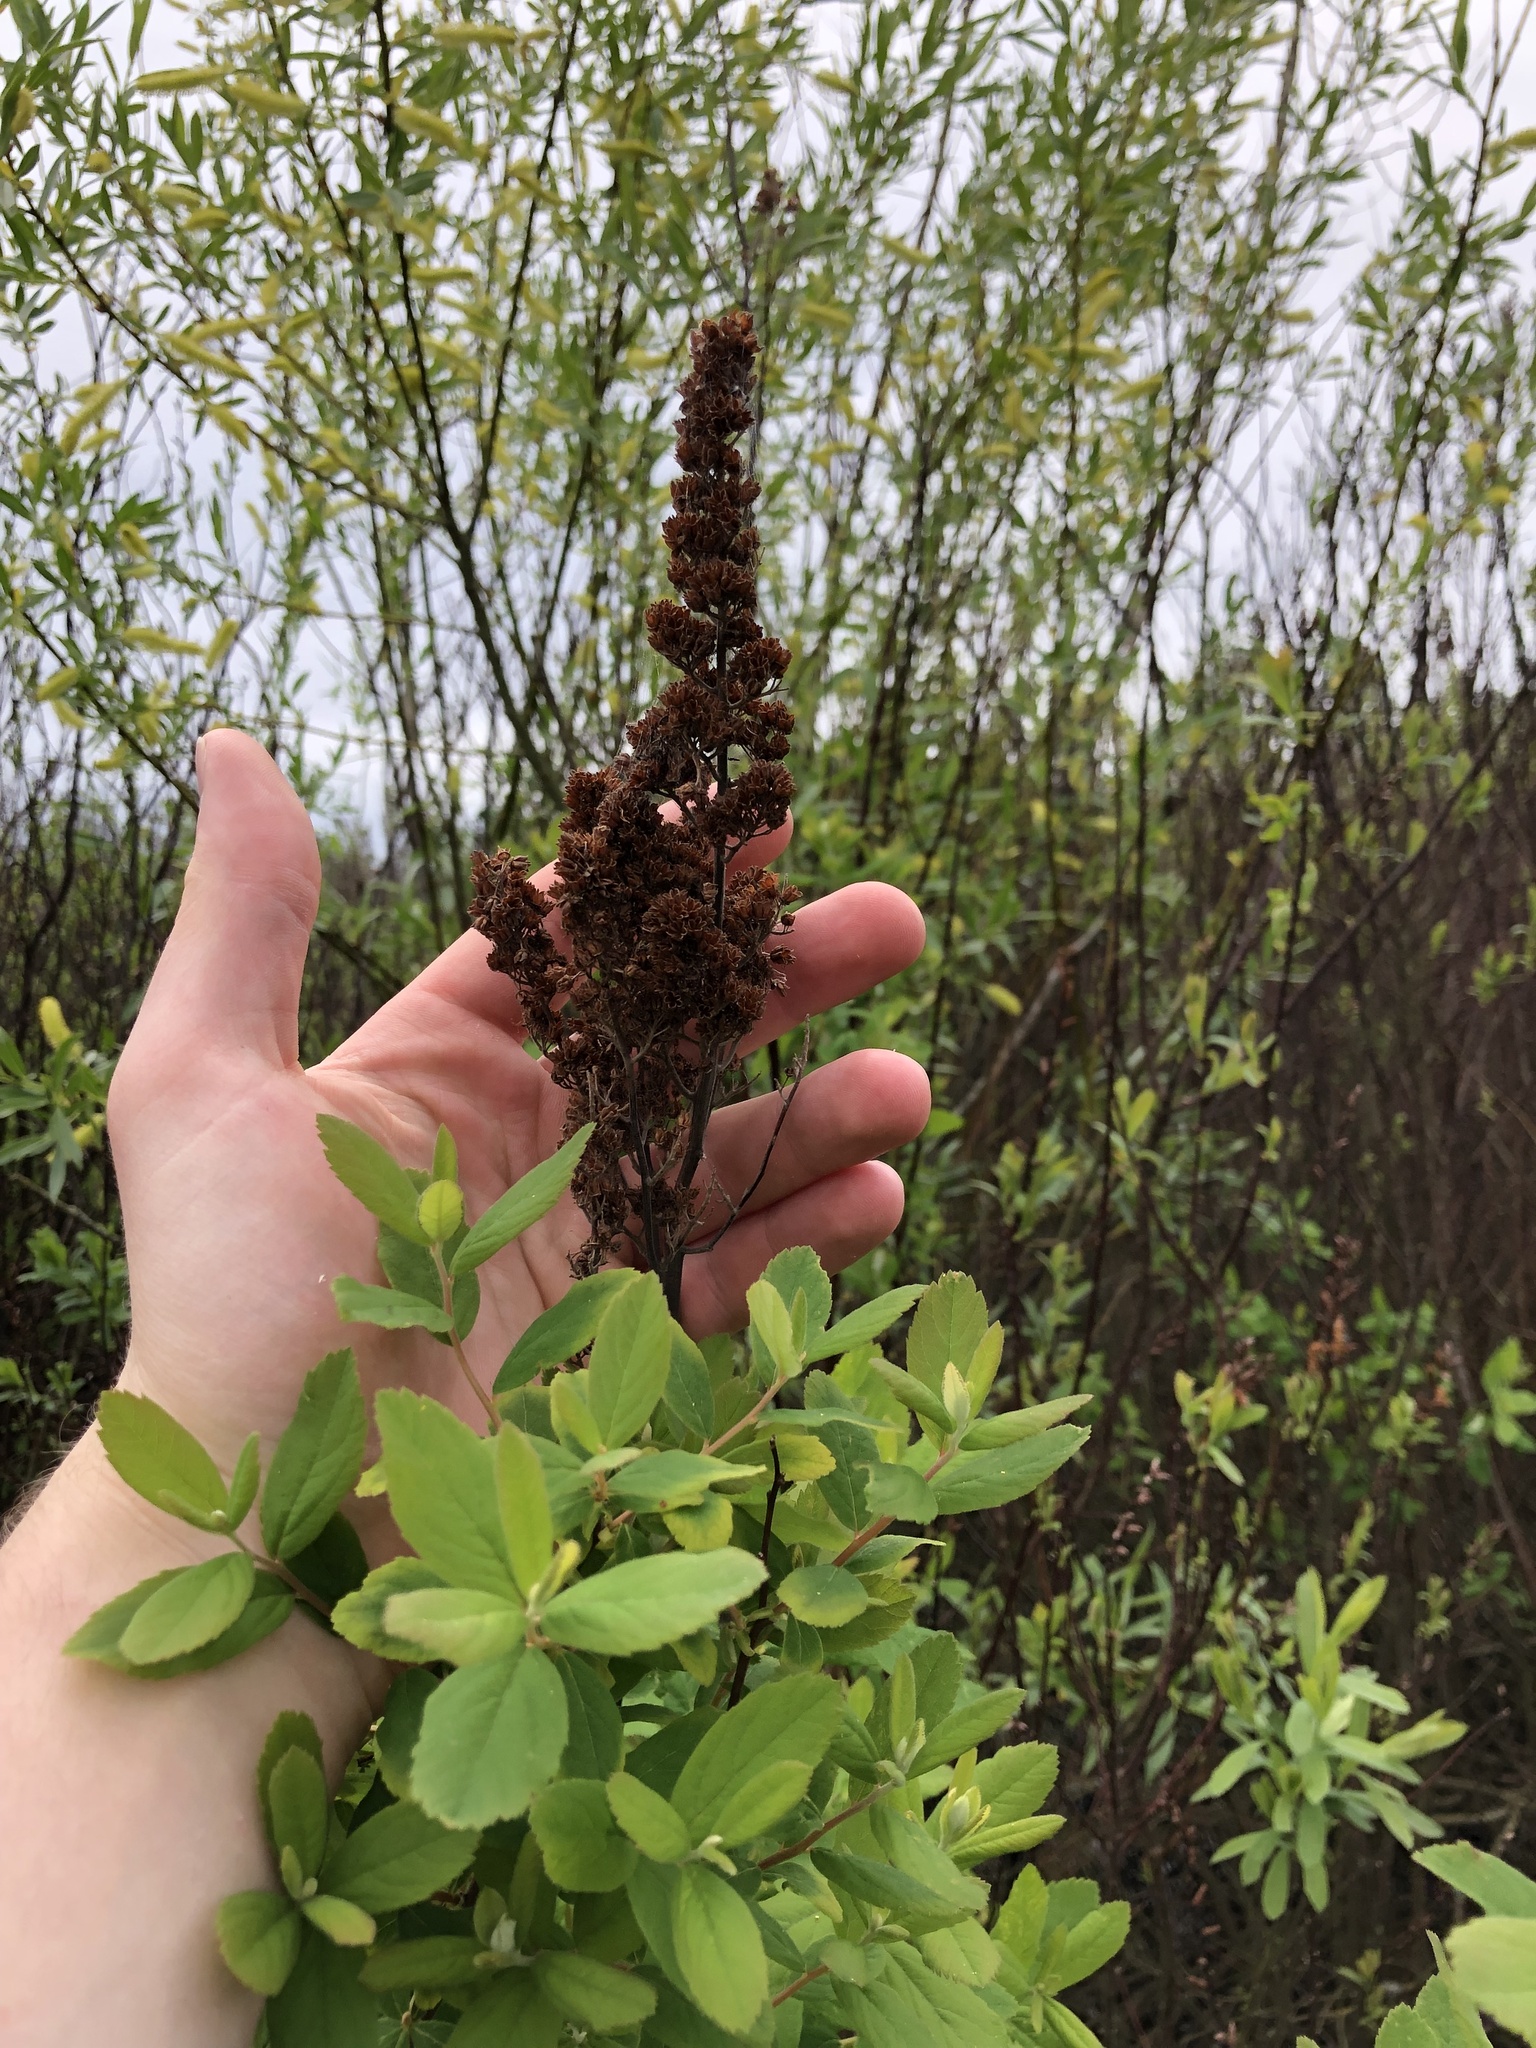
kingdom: Plantae
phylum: Tracheophyta
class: Magnoliopsida
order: Rosales
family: Rosaceae
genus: Spiraea
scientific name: Spiraea douglasii
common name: Steeplebush
